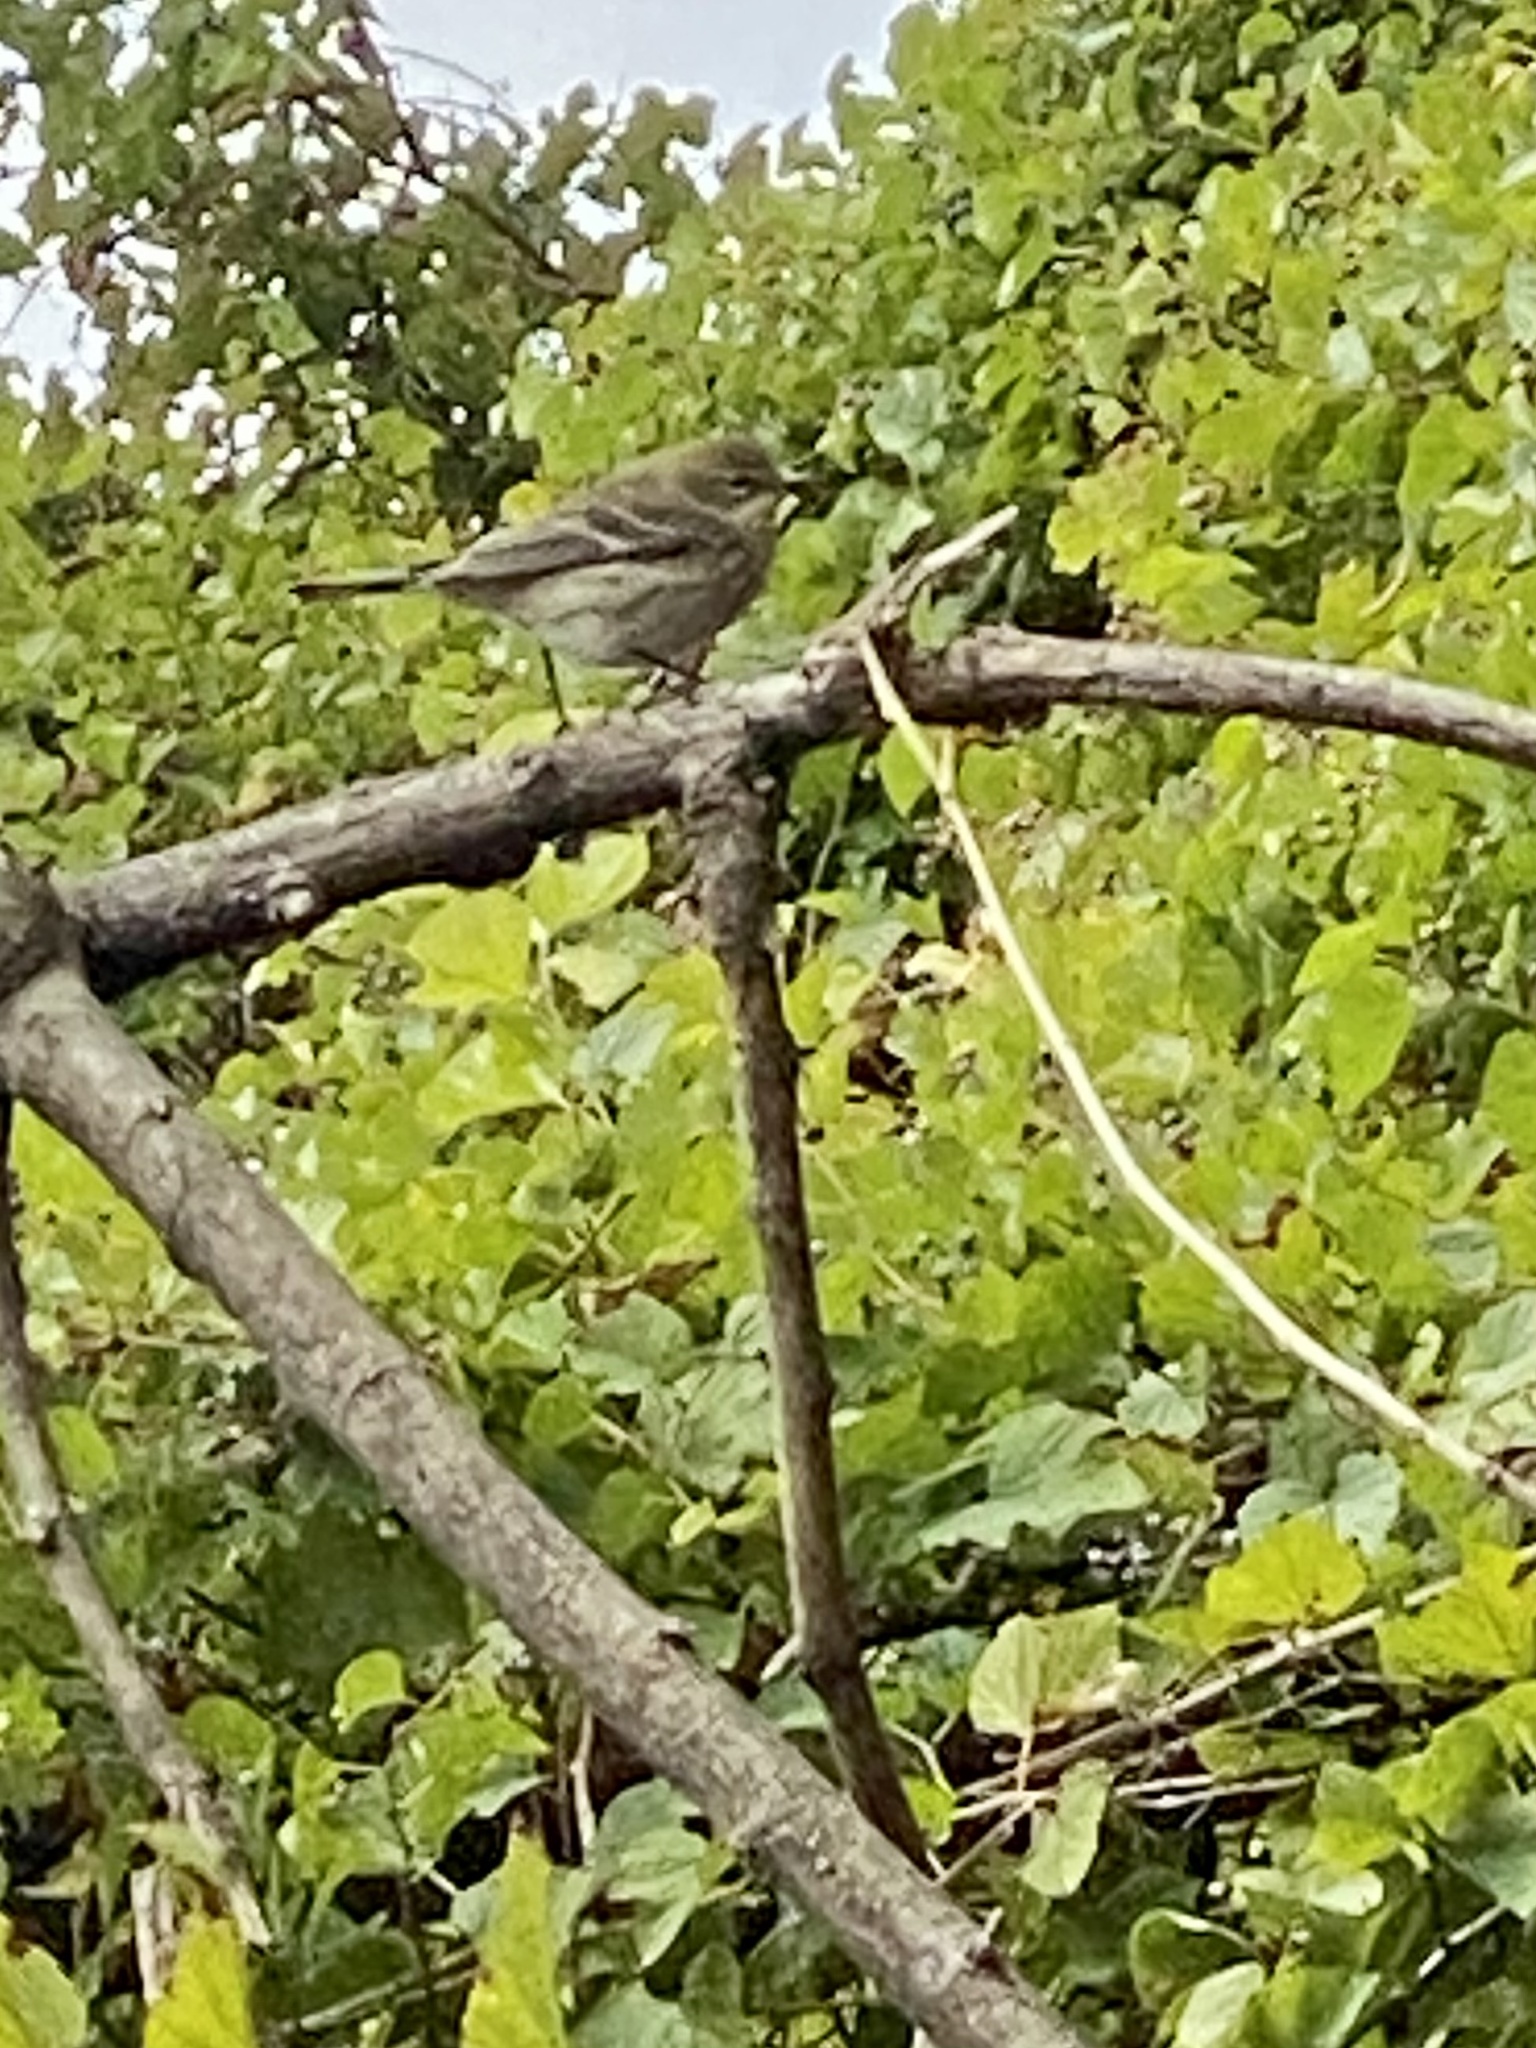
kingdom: Animalia
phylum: Chordata
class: Aves
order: Passeriformes
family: Parulidae
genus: Setophaga
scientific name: Setophaga coronata
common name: Myrtle warbler
